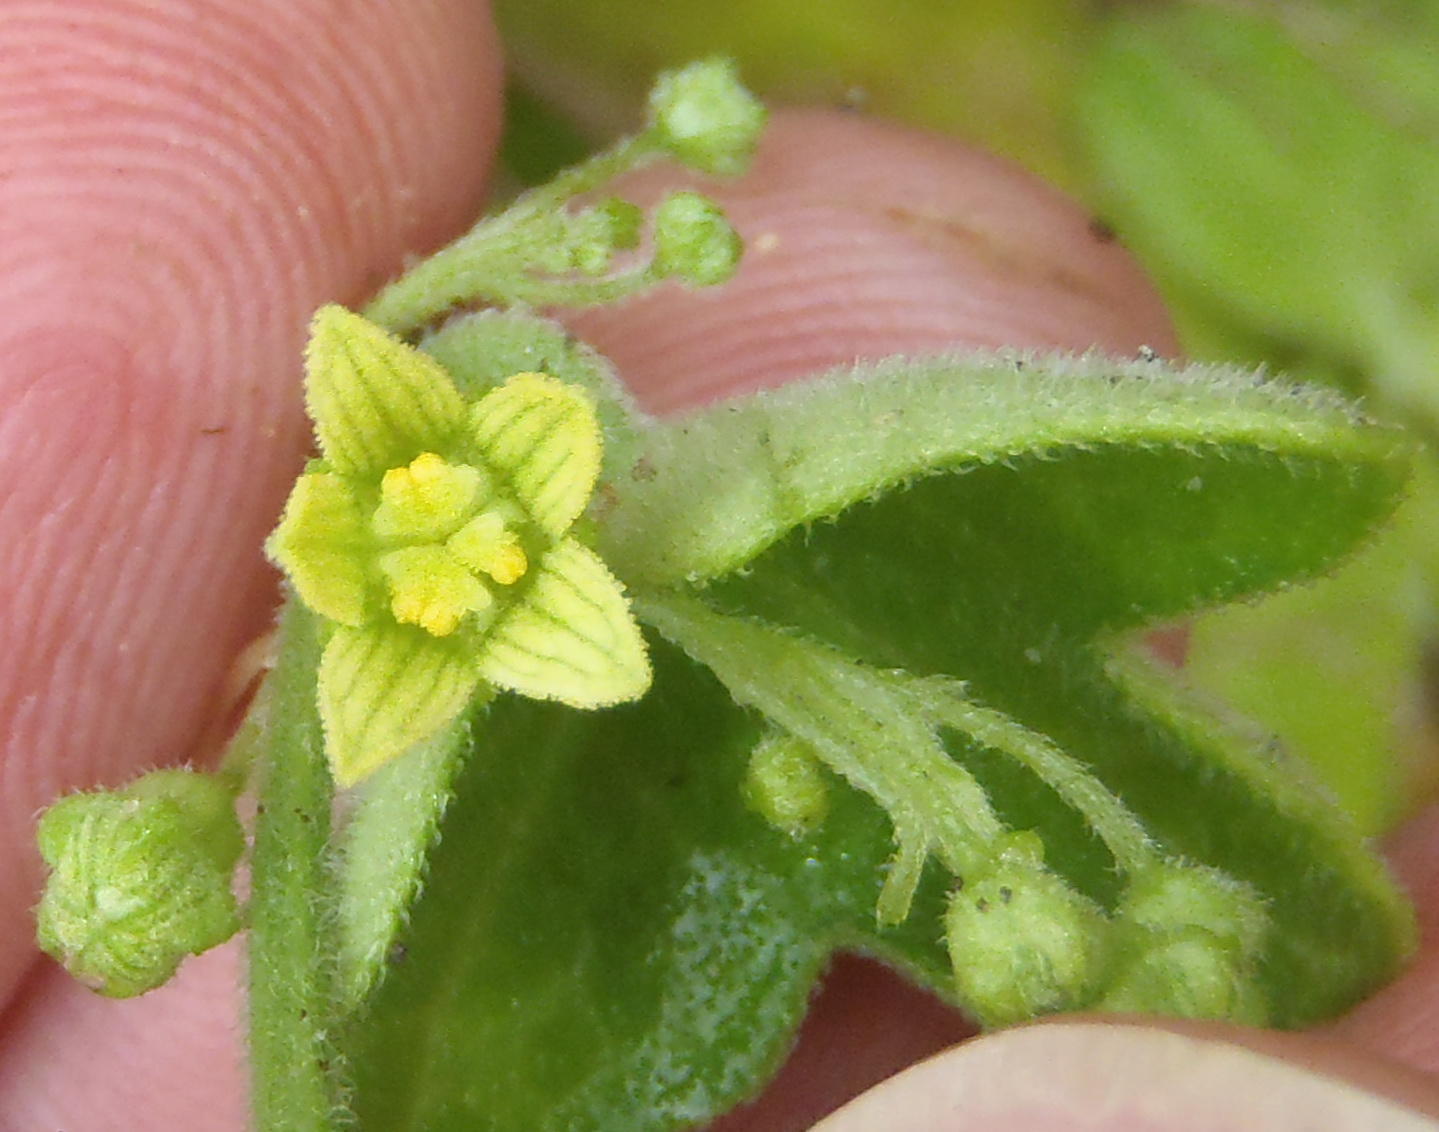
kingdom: Plantae
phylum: Tracheophyta
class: Magnoliopsida
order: Cucurbitales
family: Cucurbitaceae
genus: Kedrostis
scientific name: Kedrostis nana
